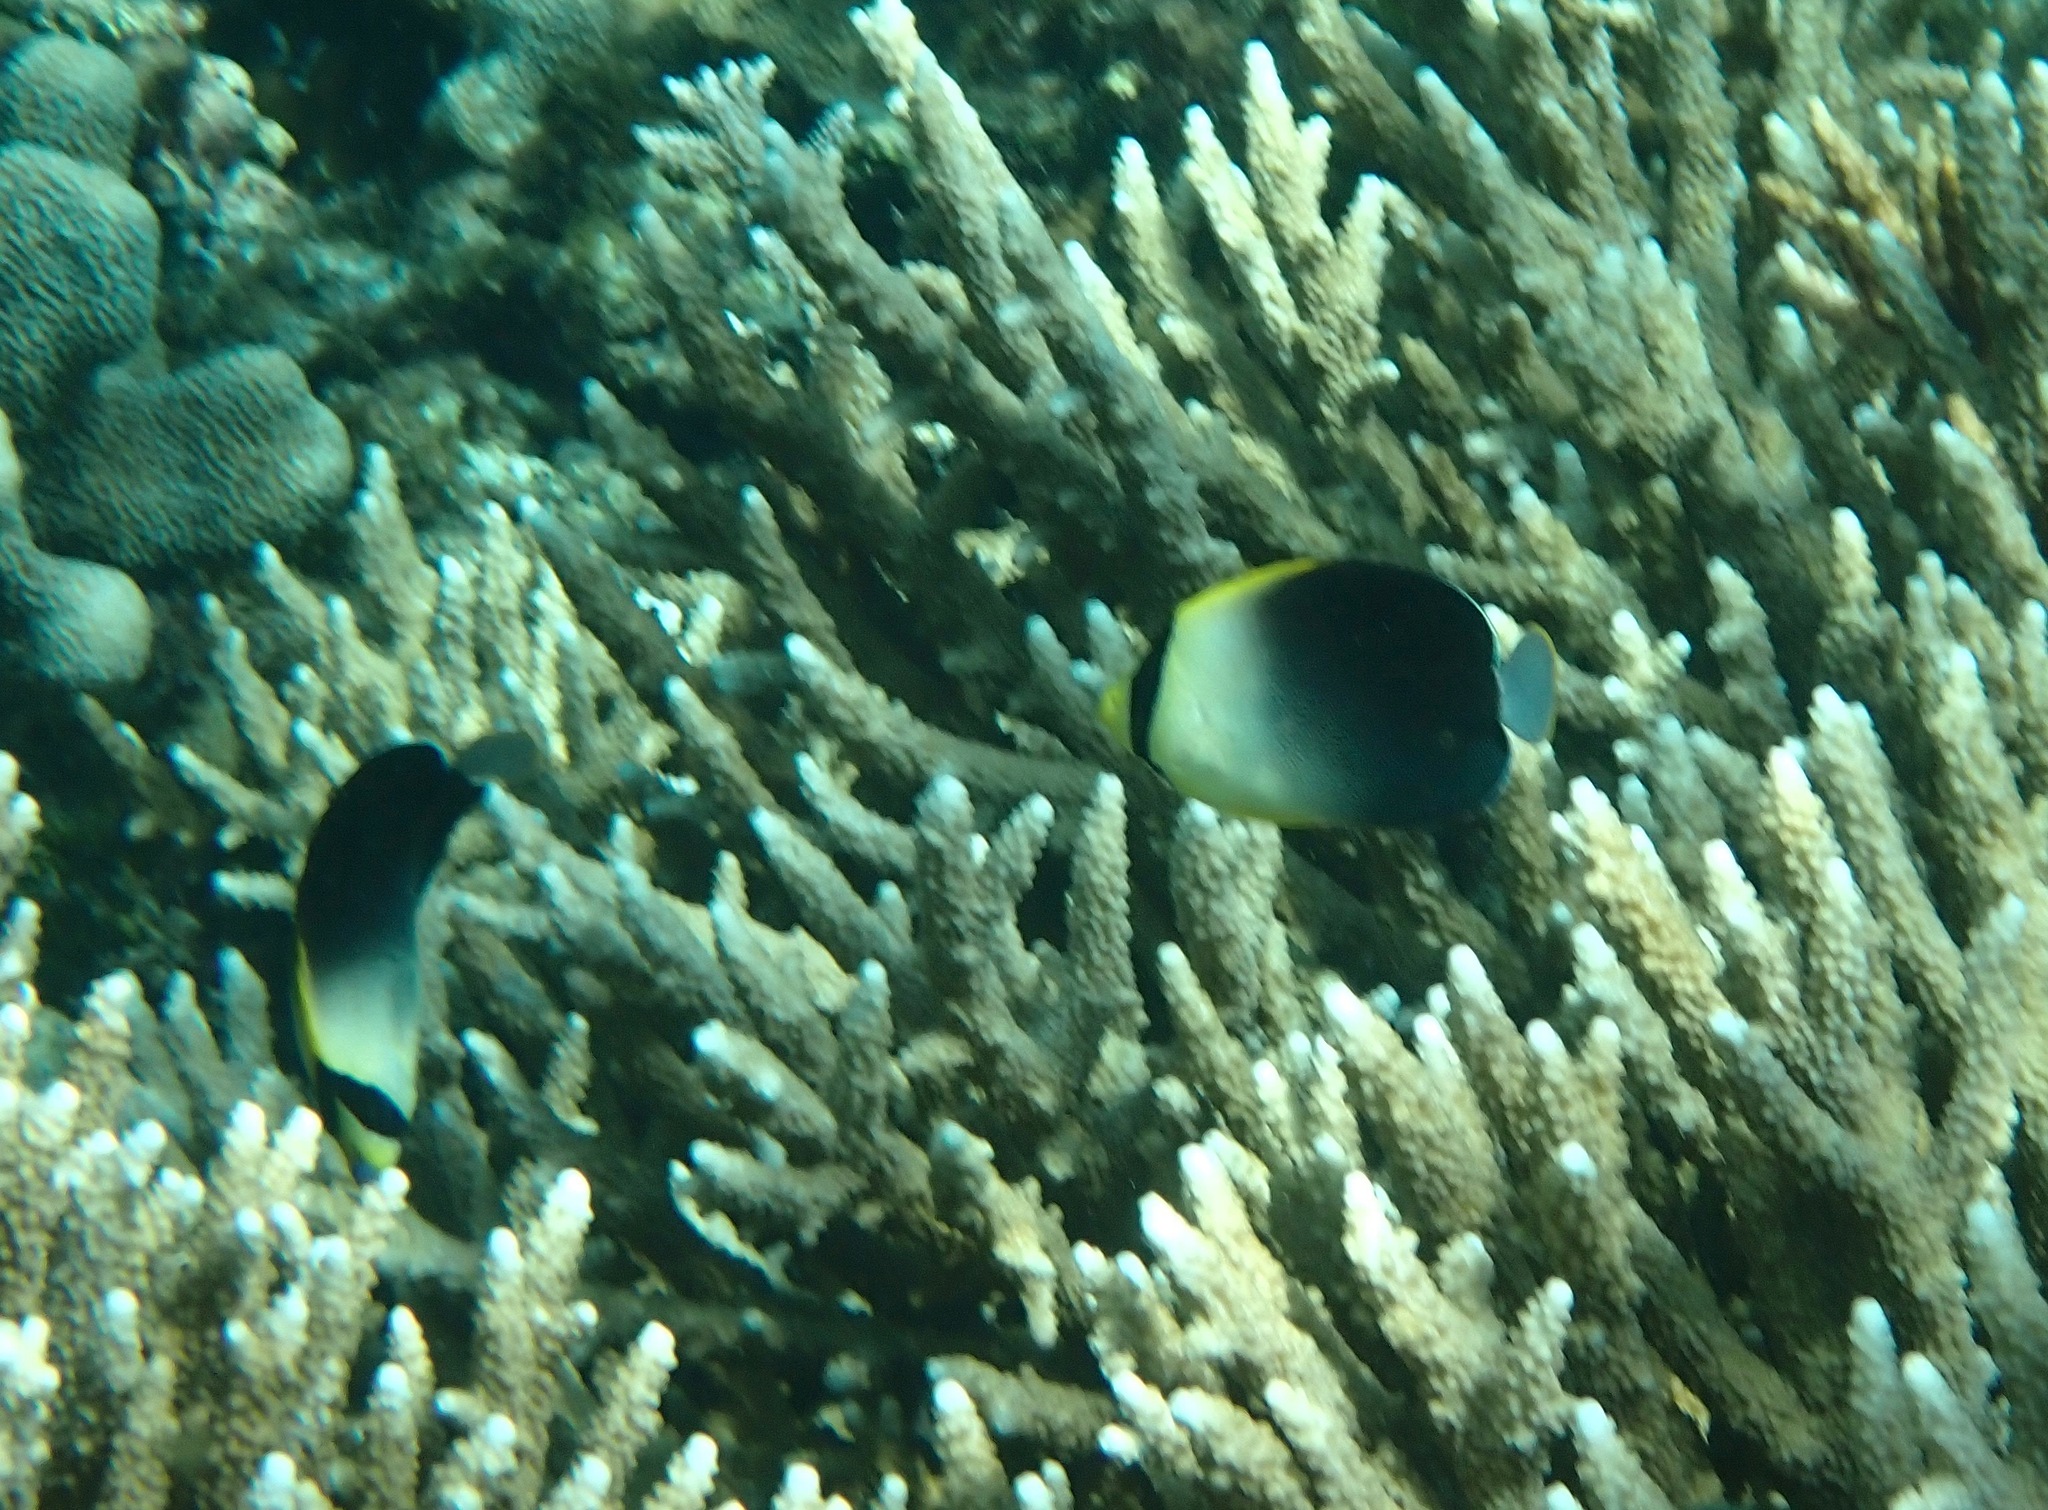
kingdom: Animalia
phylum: Chordata
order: Perciformes
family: Pomacanthidae
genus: Chaetodontoplus
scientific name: Chaetodontoplus poliourus
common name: Greytail angelfish
